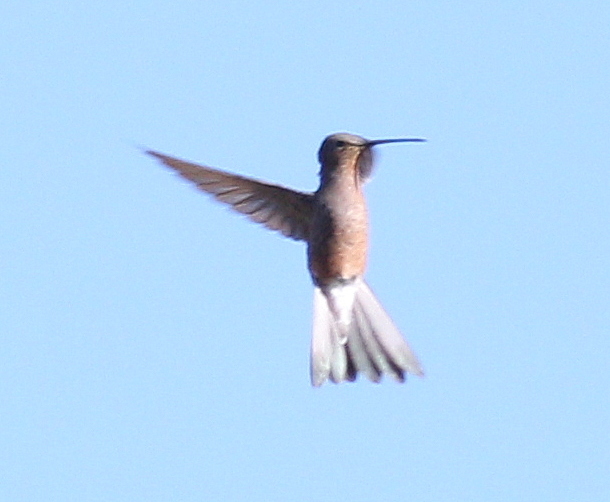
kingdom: Animalia
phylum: Chordata
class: Aves
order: Apodiformes
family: Trochilidae
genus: Patagona
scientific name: Patagona gigas
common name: Giant hummingbird
